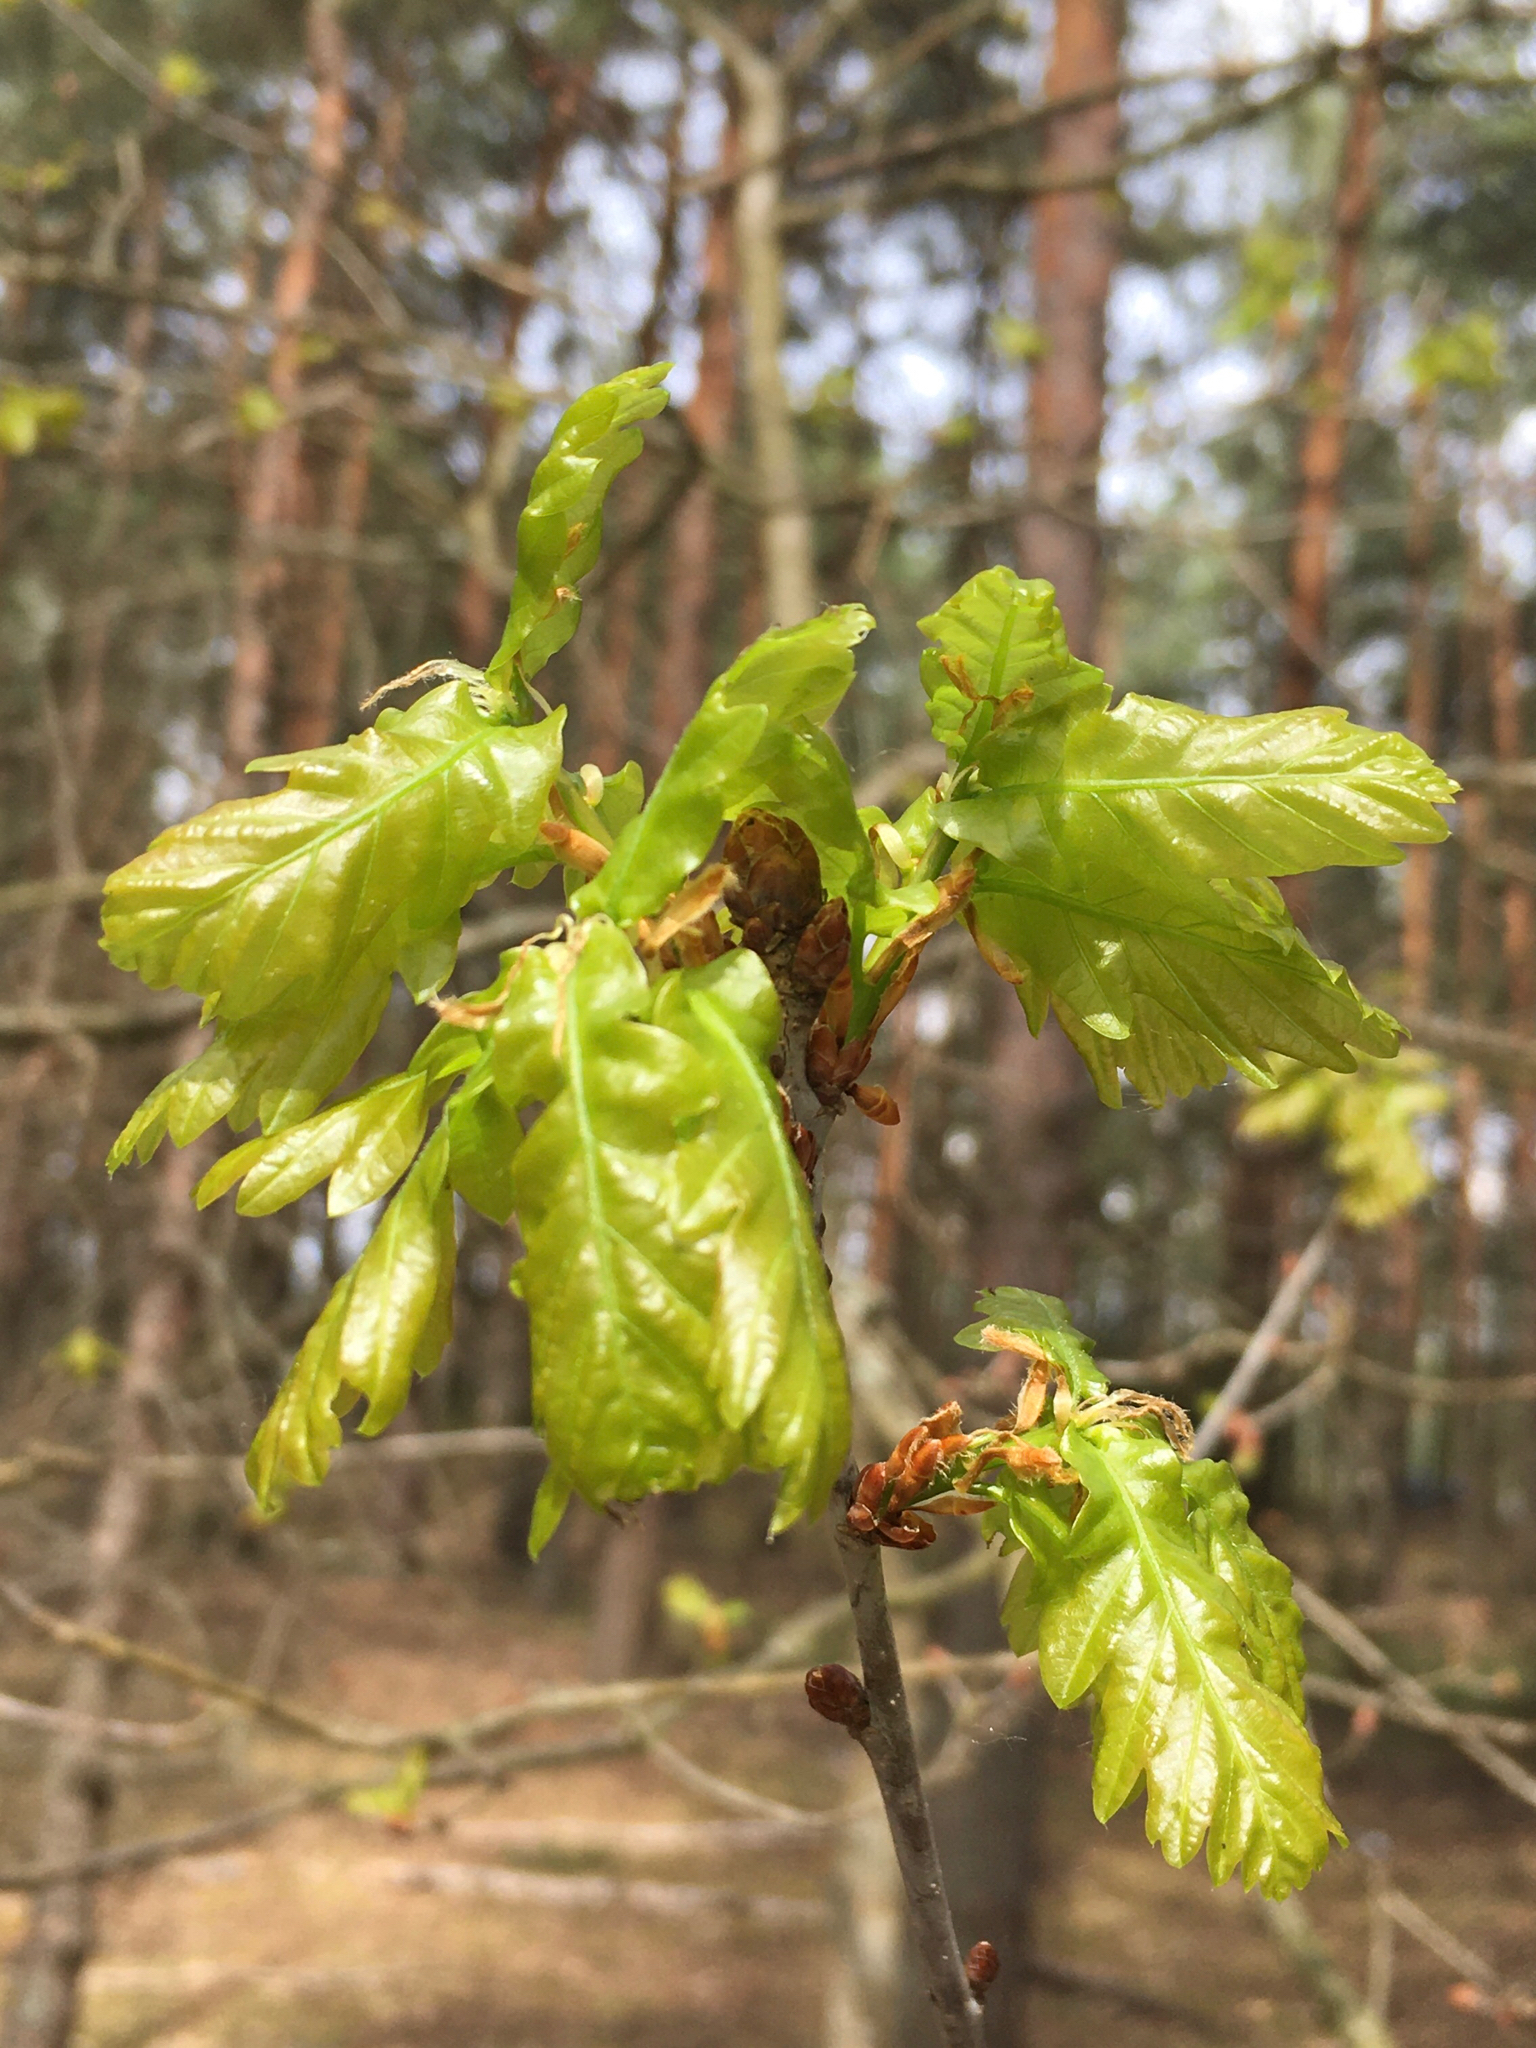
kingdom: Plantae
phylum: Tracheophyta
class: Magnoliopsida
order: Fagales
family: Fagaceae
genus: Quercus
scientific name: Quercus robur
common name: Pedunculate oak
